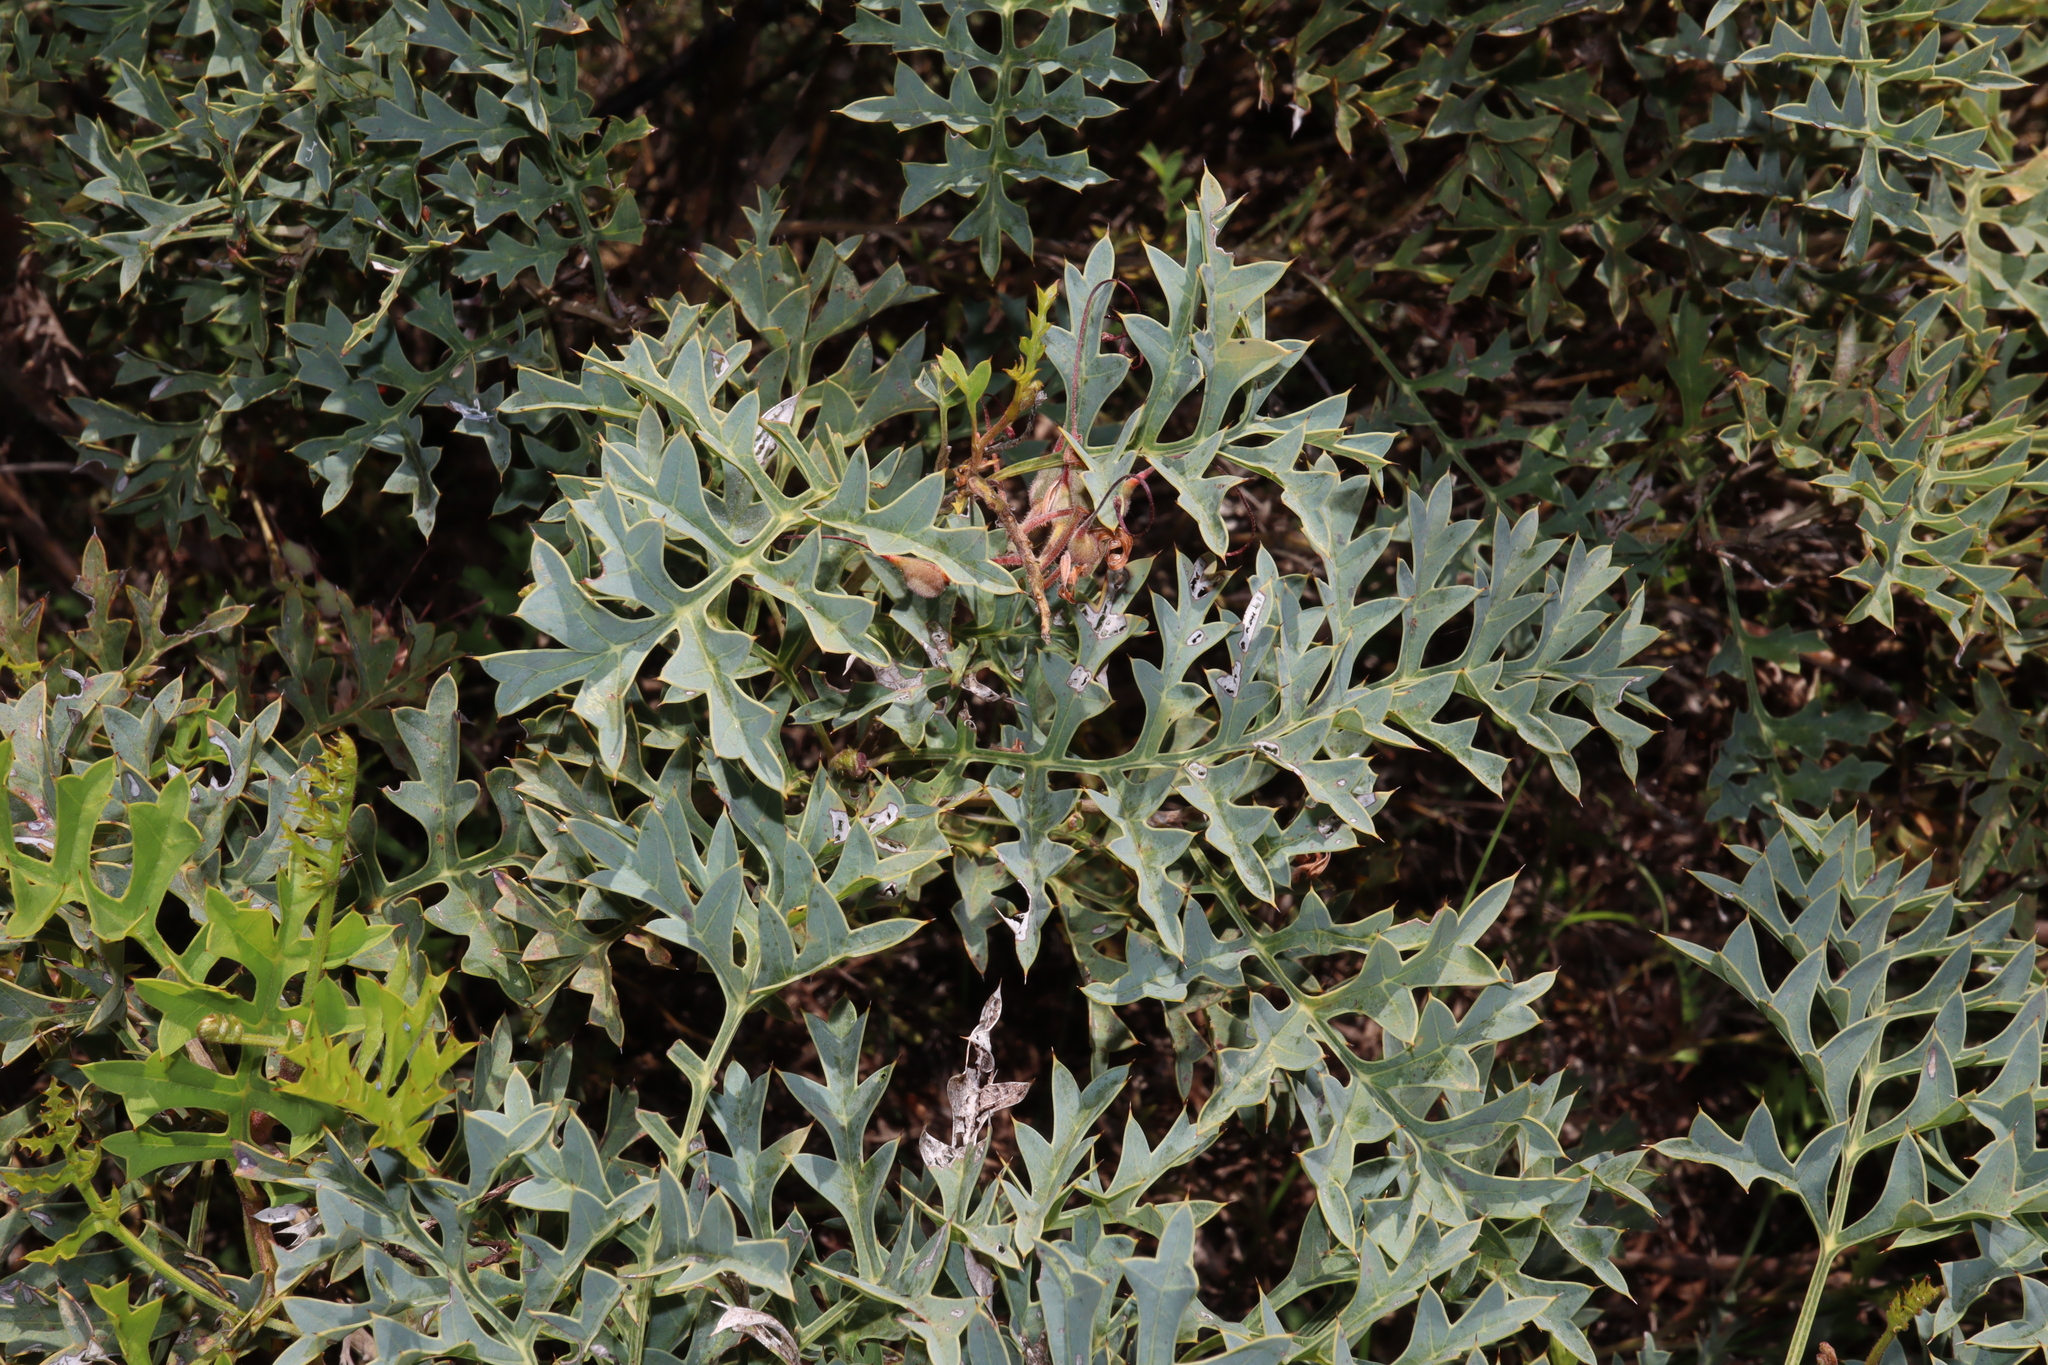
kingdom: Plantae
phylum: Tracheophyta
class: Magnoliopsida
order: Proteales
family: Proteaceae
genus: Grevillea
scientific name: Grevillea bipinnatifida
